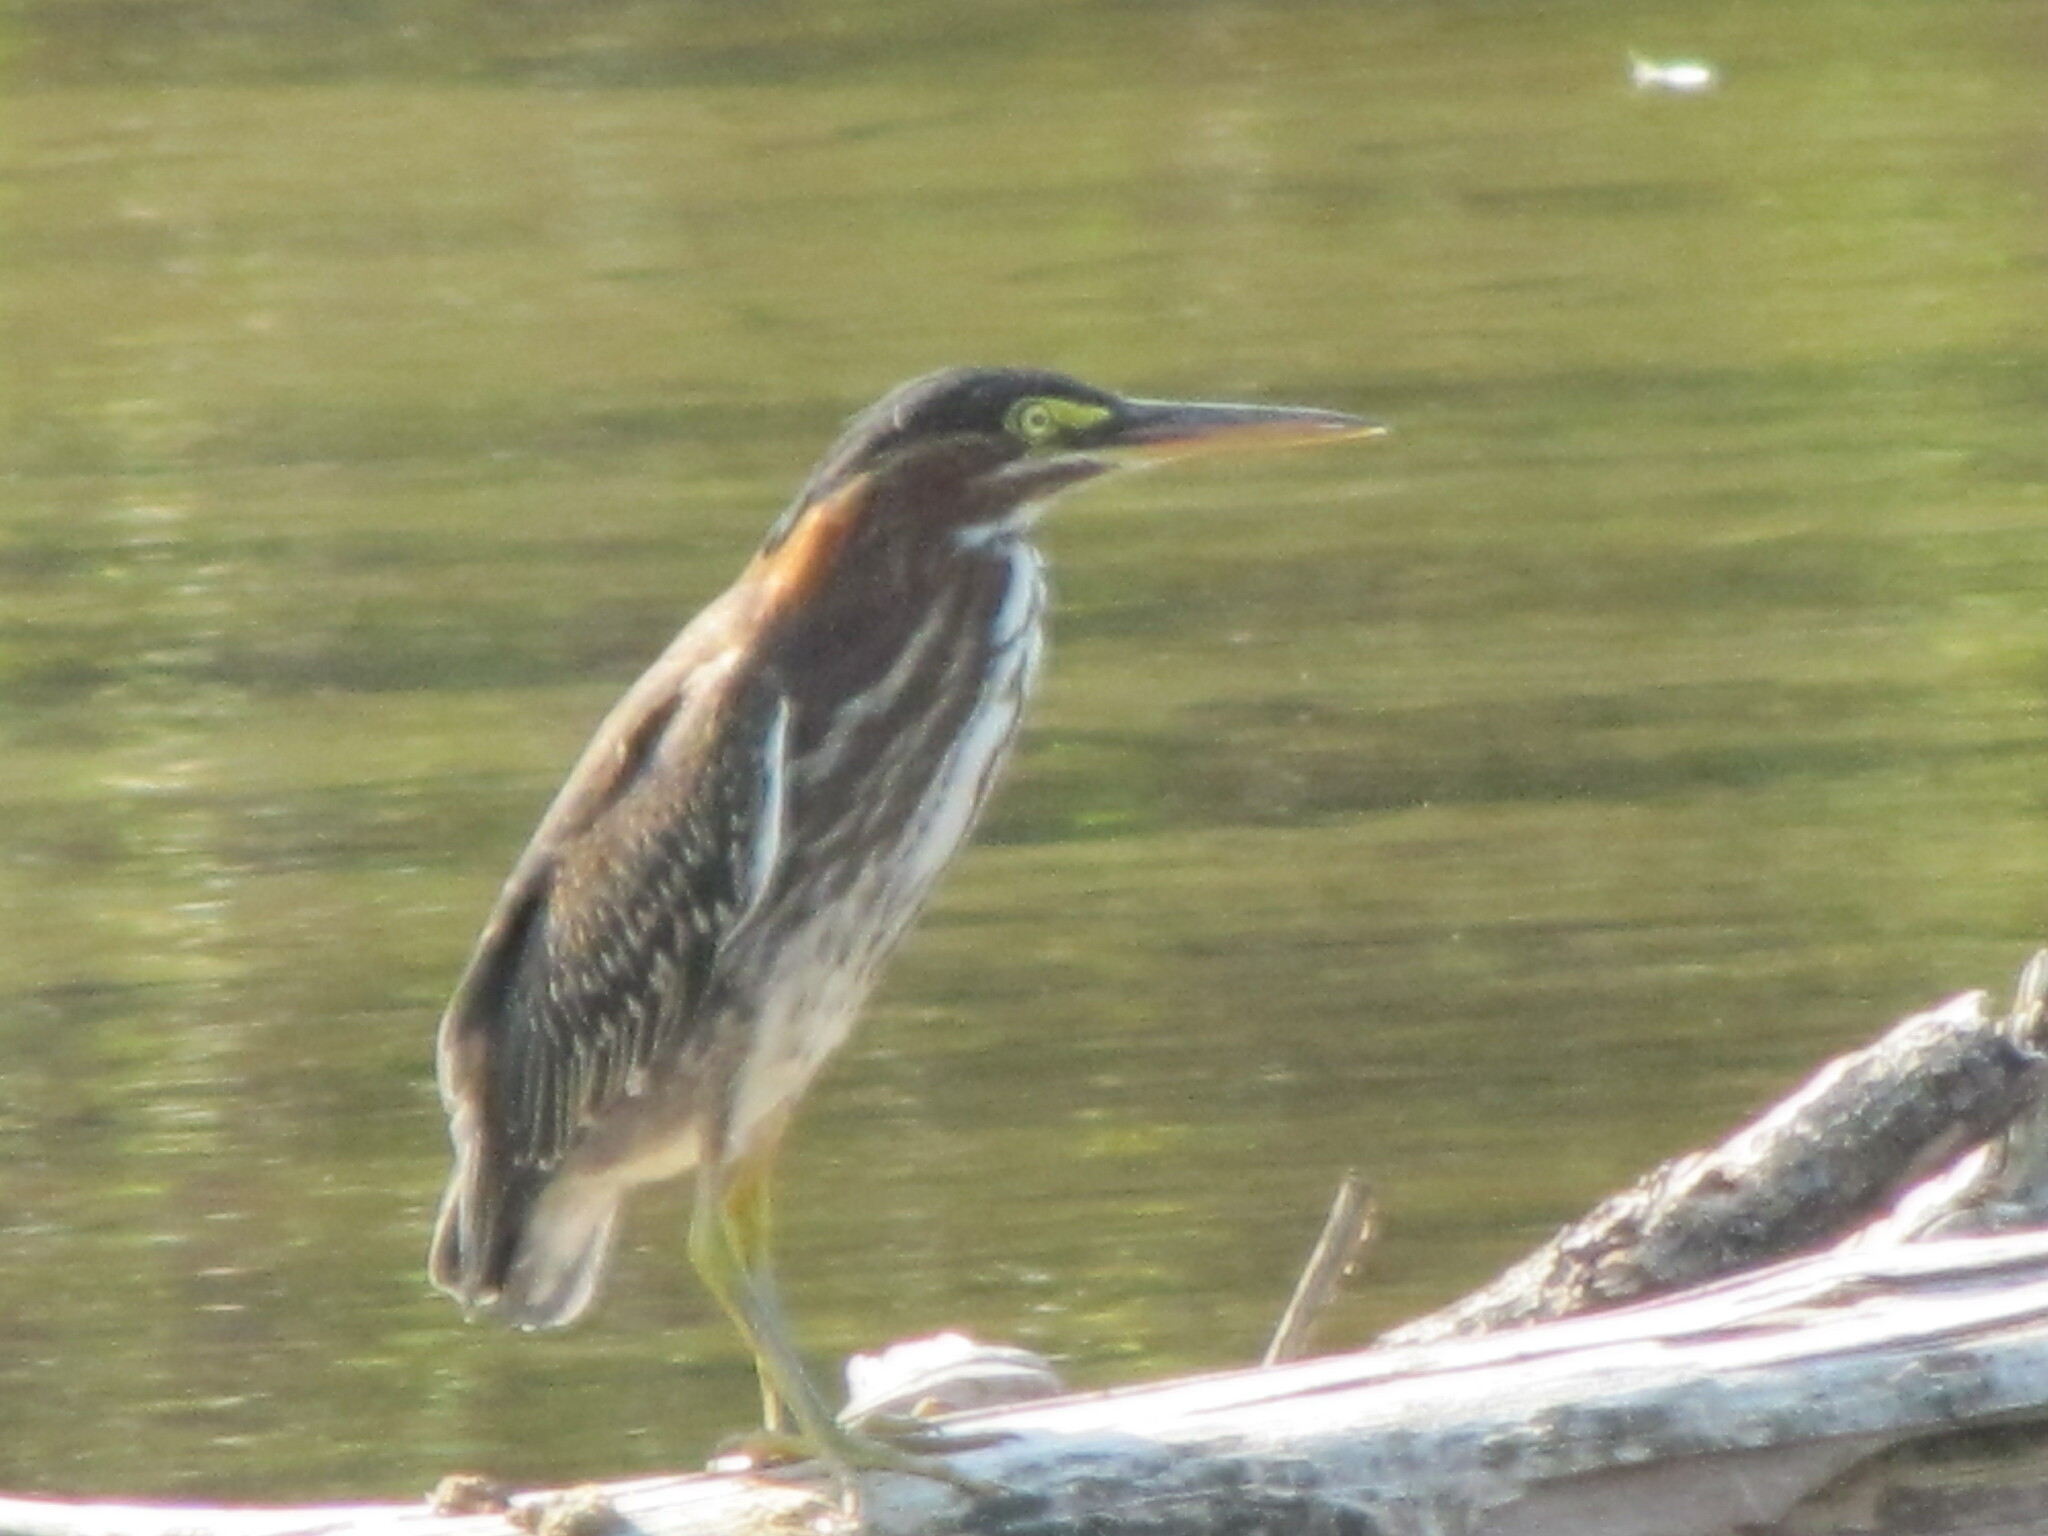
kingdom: Animalia
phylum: Chordata
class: Aves
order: Pelecaniformes
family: Ardeidae
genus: Butorides
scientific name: Butorides virescens
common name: Green heron
